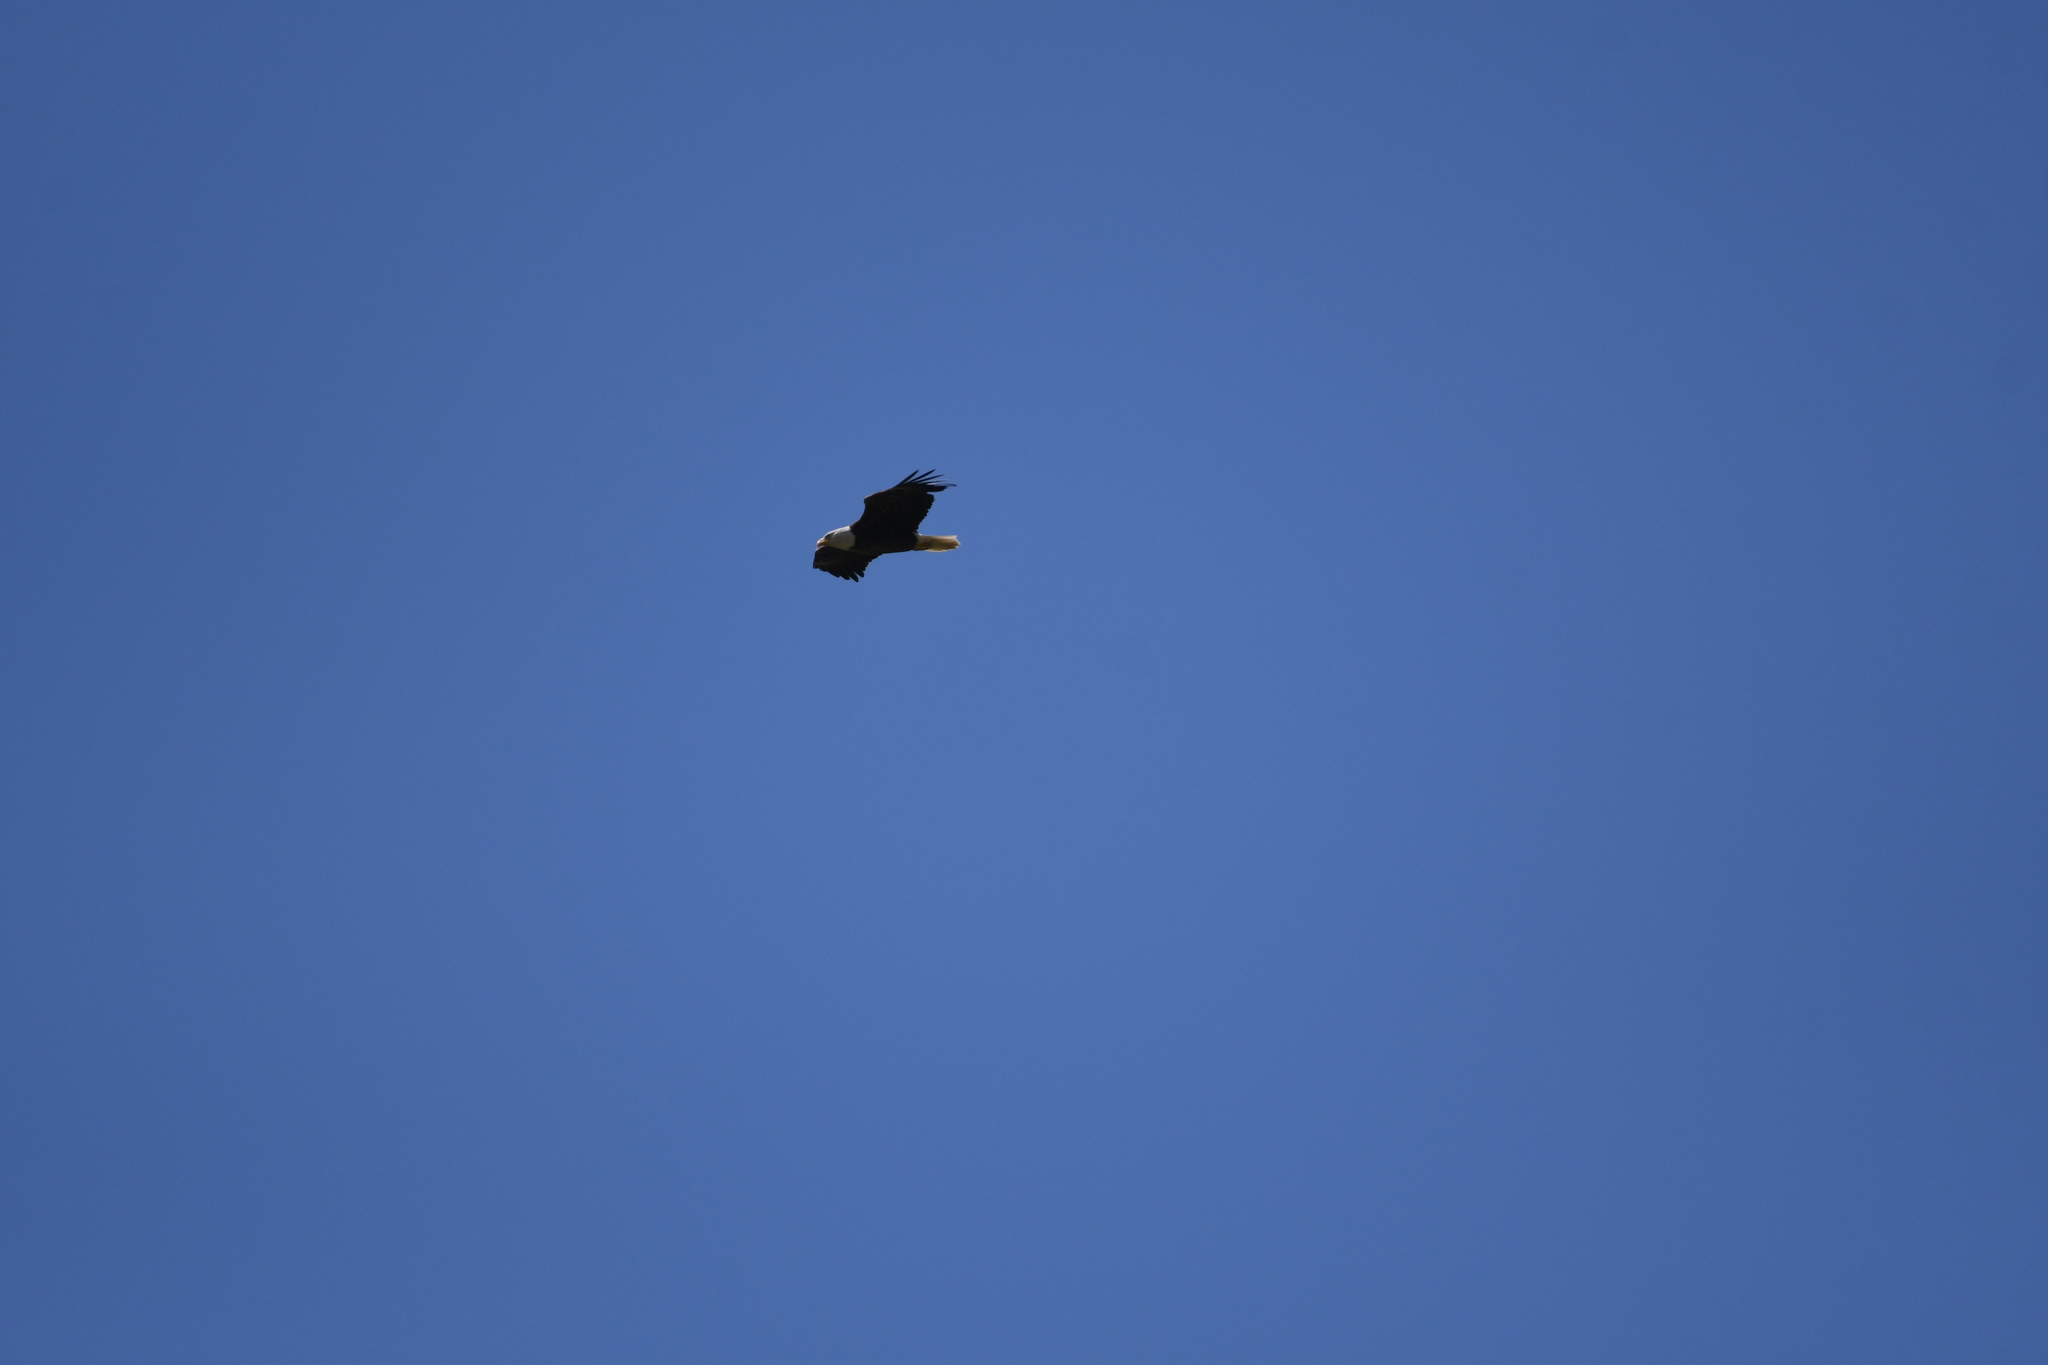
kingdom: Animalia
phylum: Chordata
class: Aves
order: Accipitriformes
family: Accipitridae
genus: Haliaeetus
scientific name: Haliaeetus leucocephalus
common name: Bald eagle
